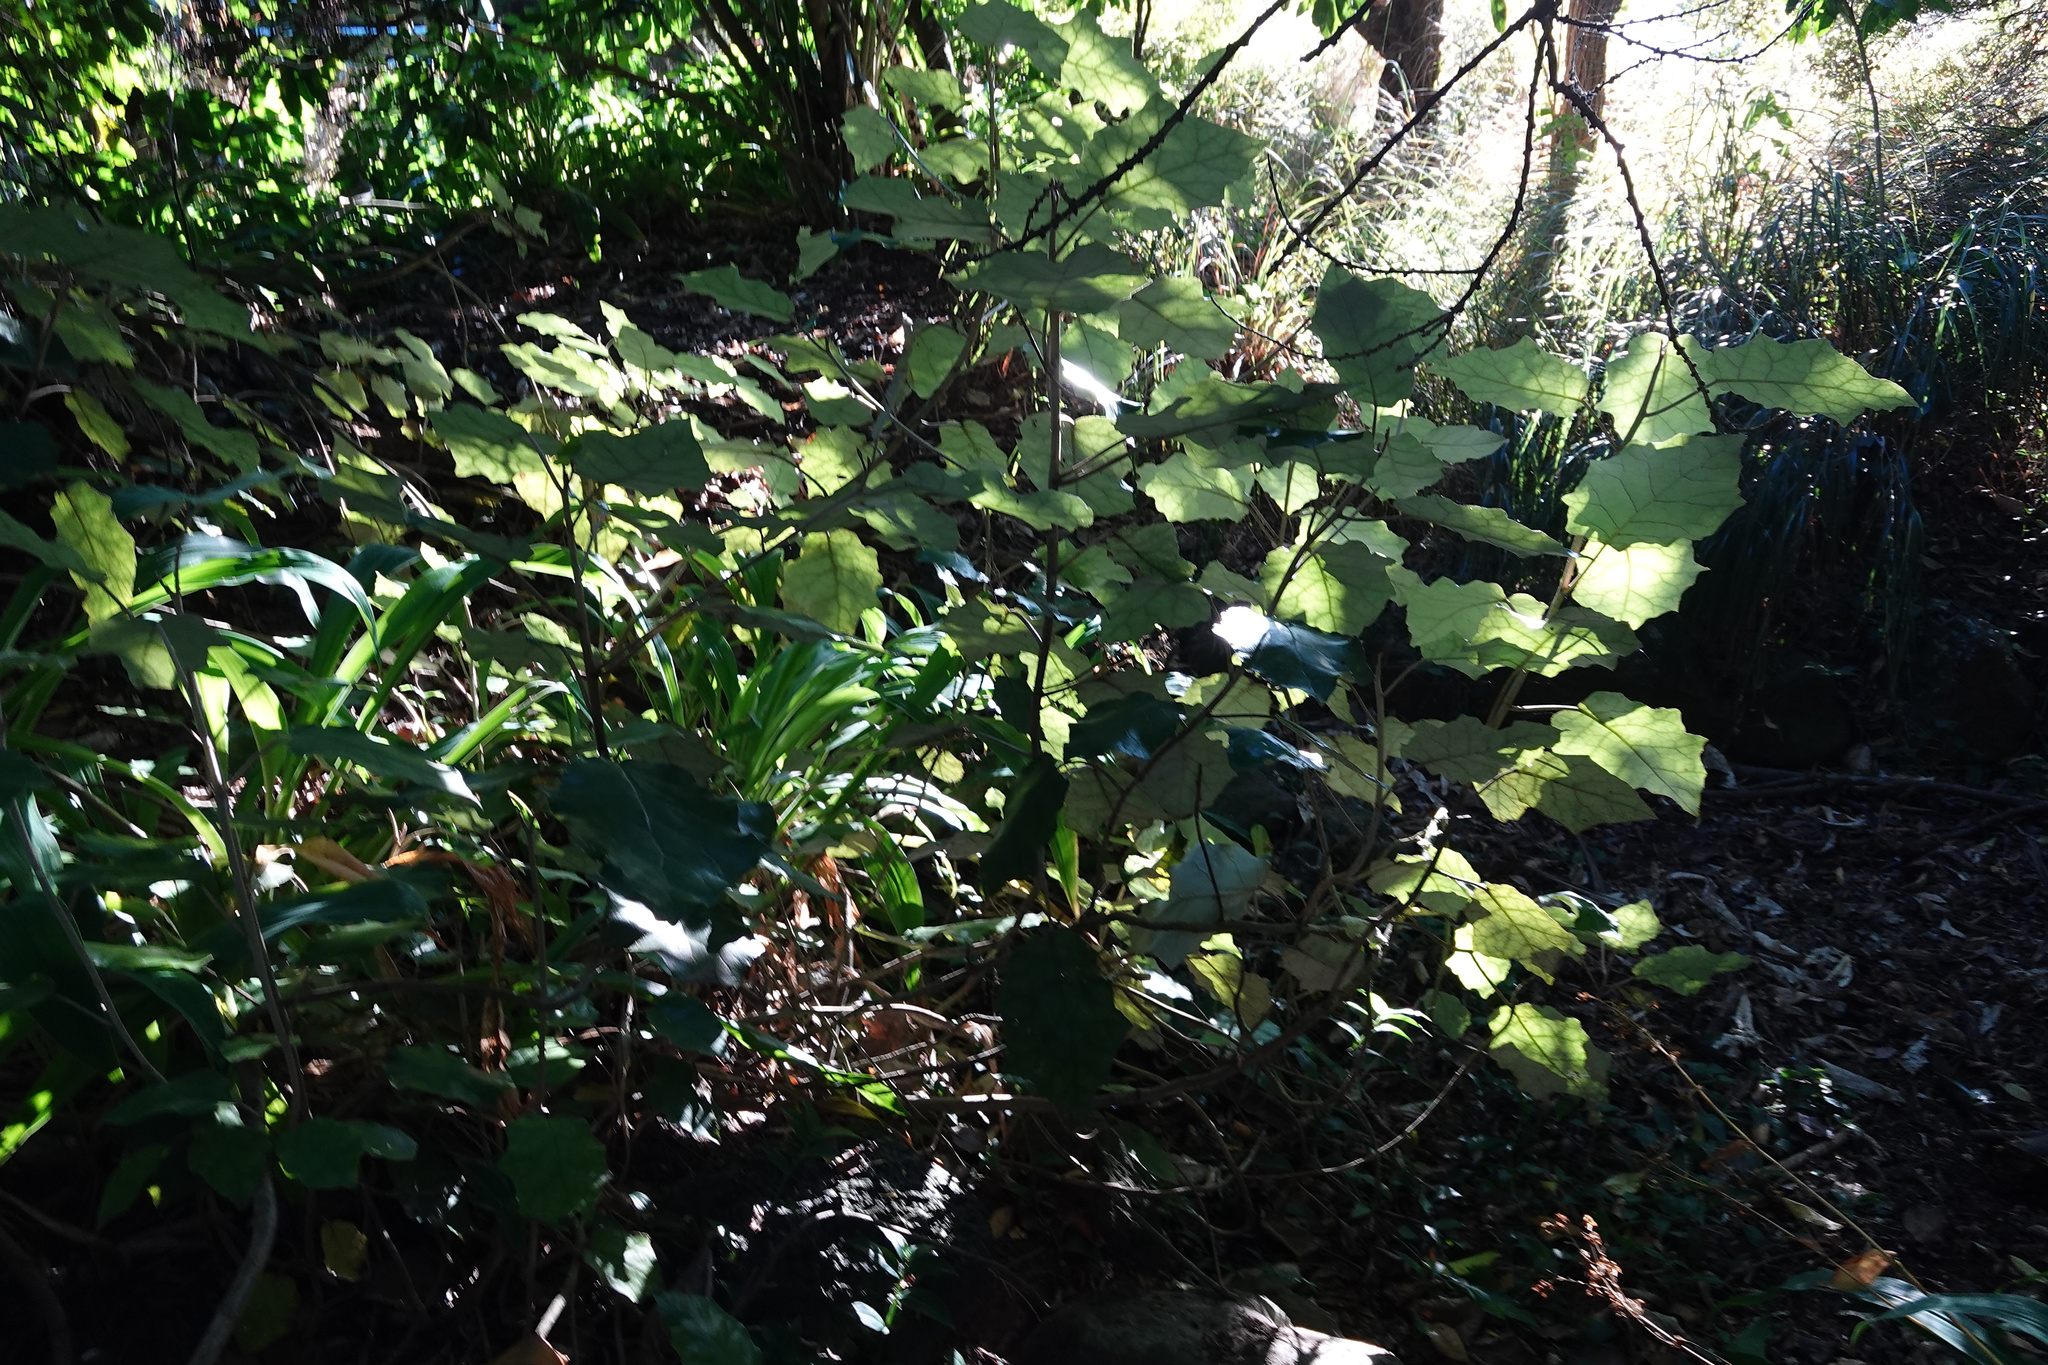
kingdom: Plantae
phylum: Tracheophyta
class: Magnoliopsida
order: Asterales
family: Asteraceae
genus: Brachyglottis
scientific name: Brachyglottis repanda
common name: Hedge ragwort
